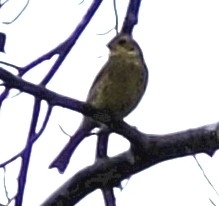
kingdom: Animalia
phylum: Chordata
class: Aves
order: Passeriformes
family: Emberizidae
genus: Emberiza
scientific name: Emberiza citrinella
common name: Yellowhammer
